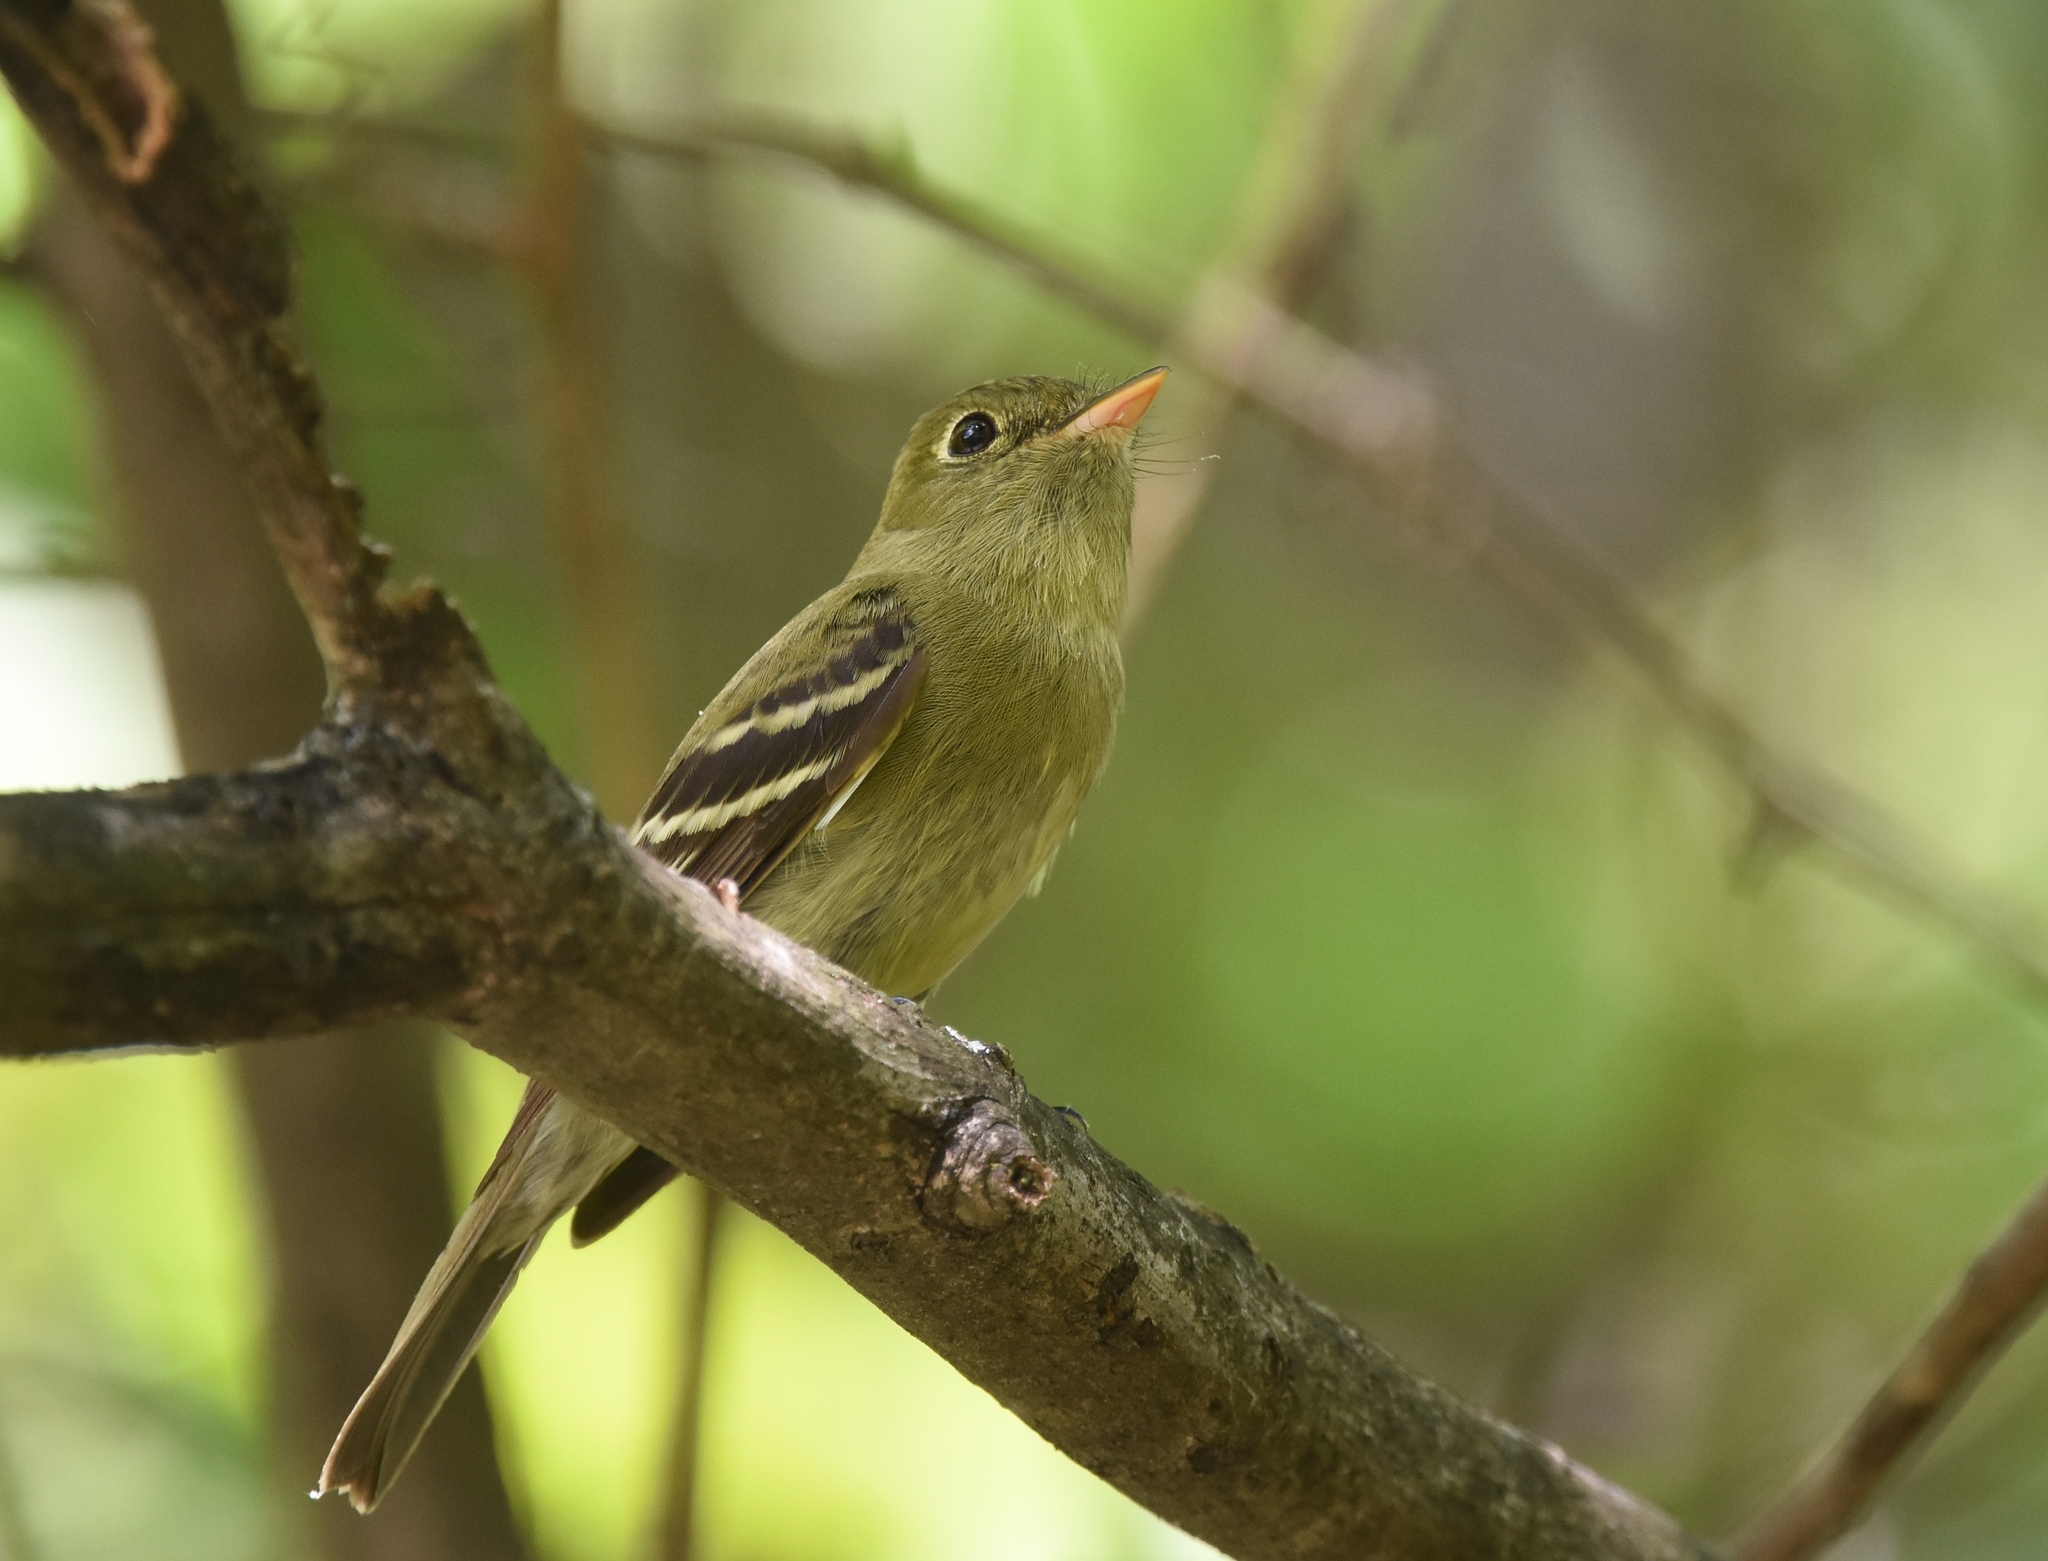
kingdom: Animalia
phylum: Chordata
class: Aves
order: Passeriformes
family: Tyrannidae
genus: Empidonax
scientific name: Empidonax flaviventris
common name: Yellow-bellied flycatcher
